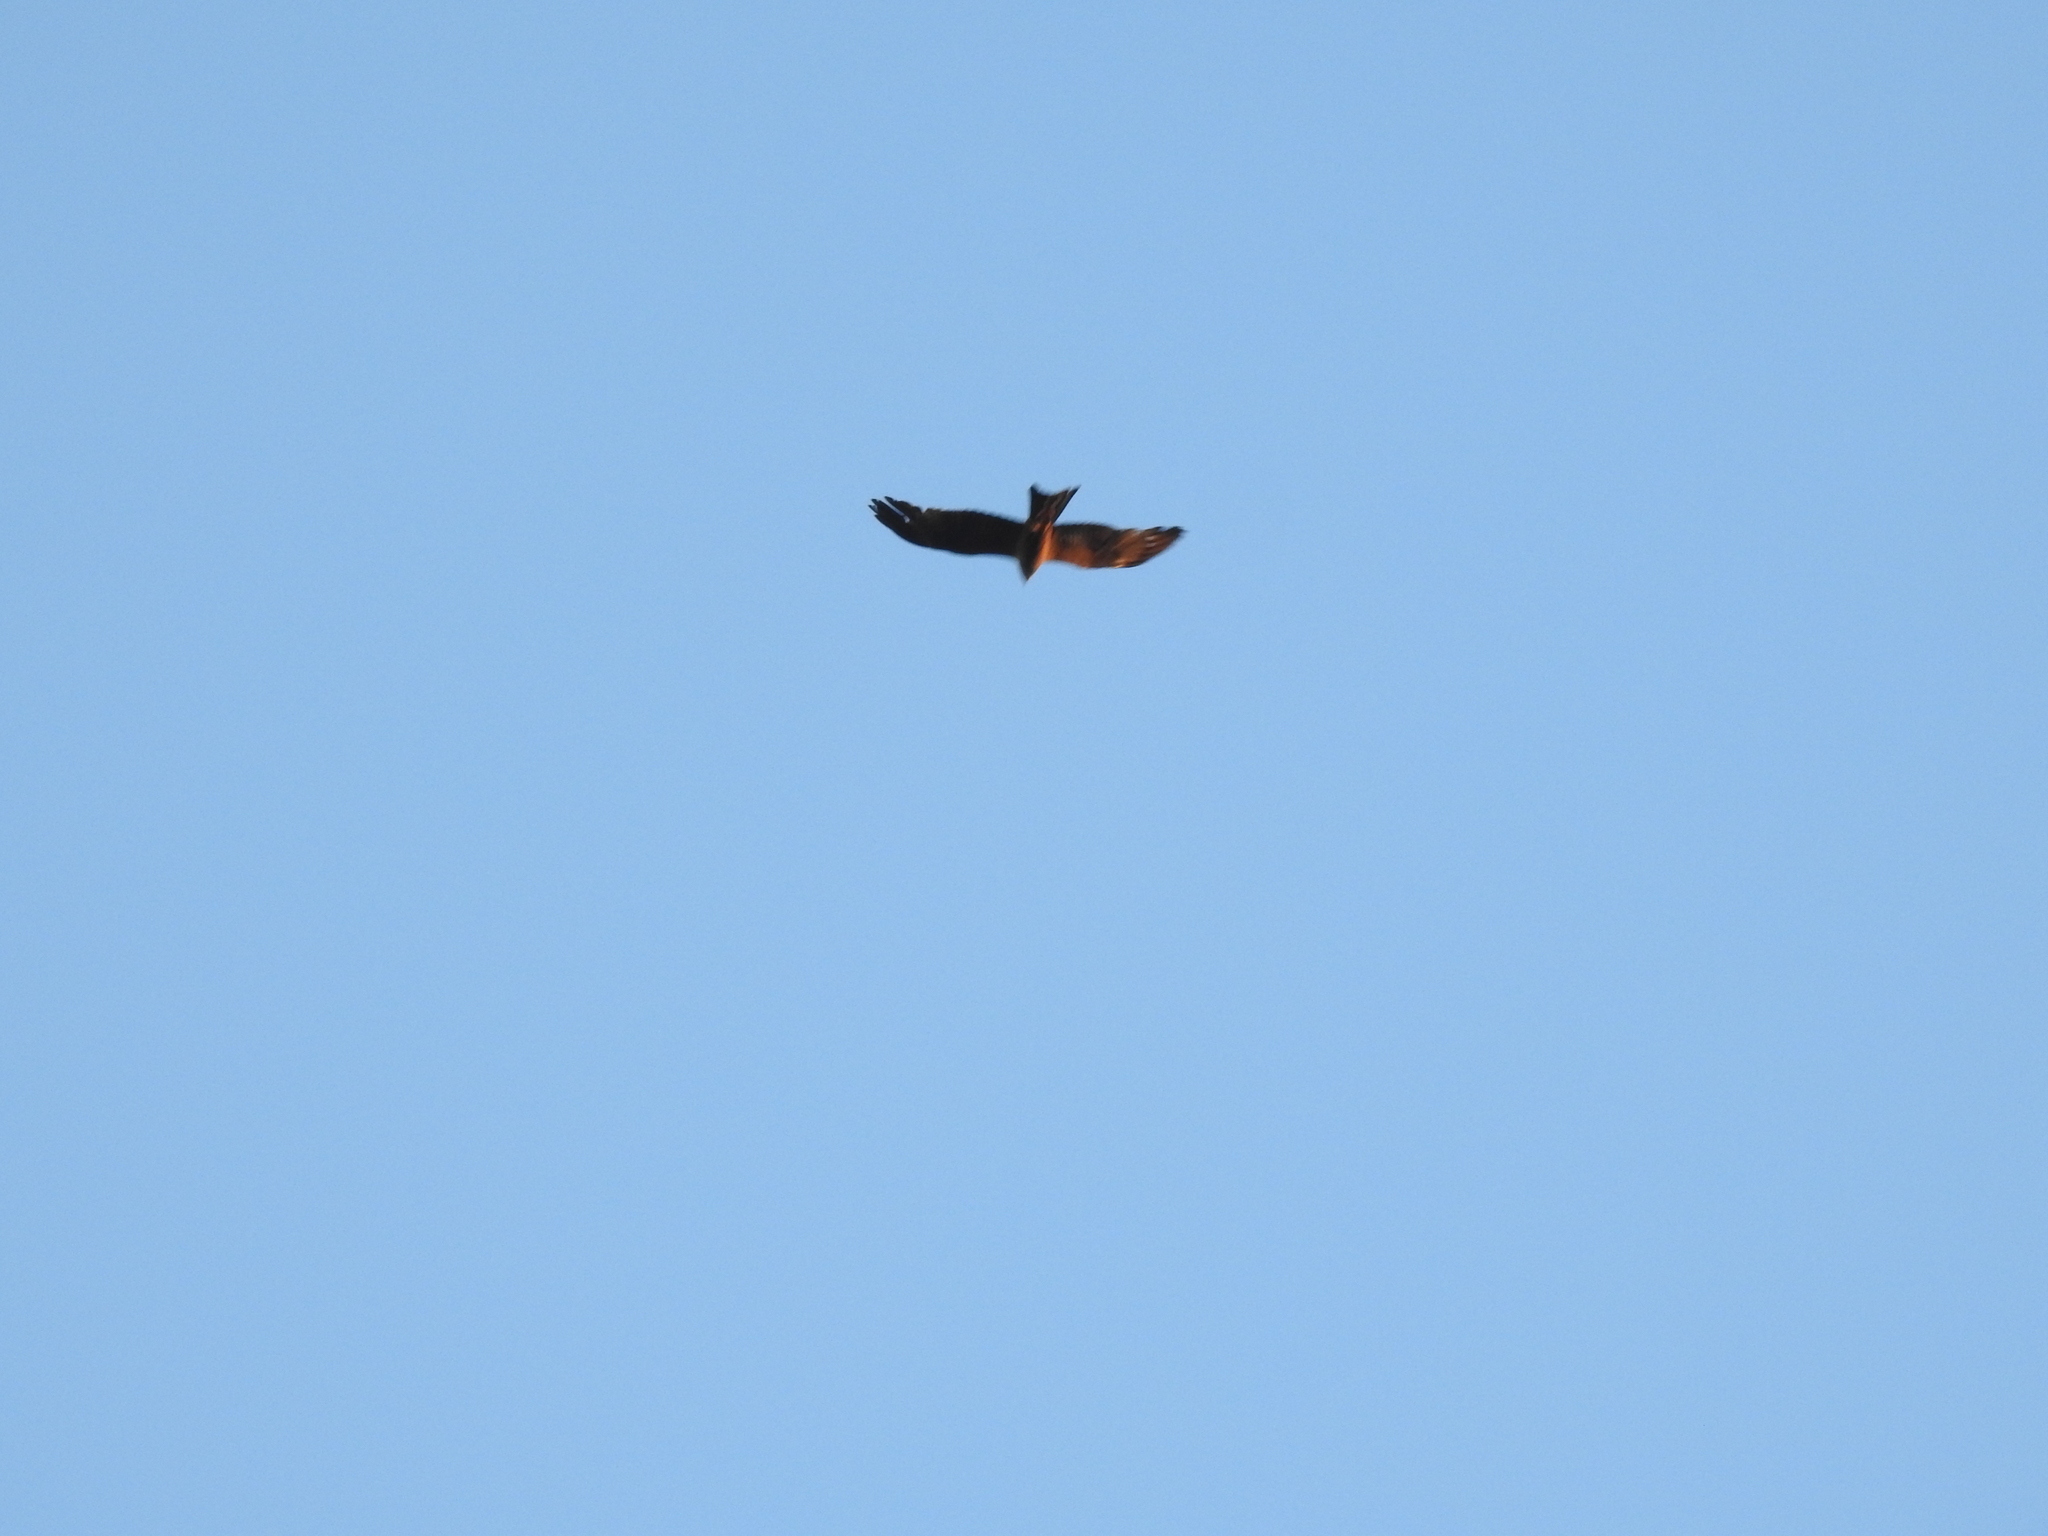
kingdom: Animalia
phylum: Chordata
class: Aves
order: Accipitriformes
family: Accipitridae
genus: Milvus
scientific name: Milvus migrans
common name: Black kite
